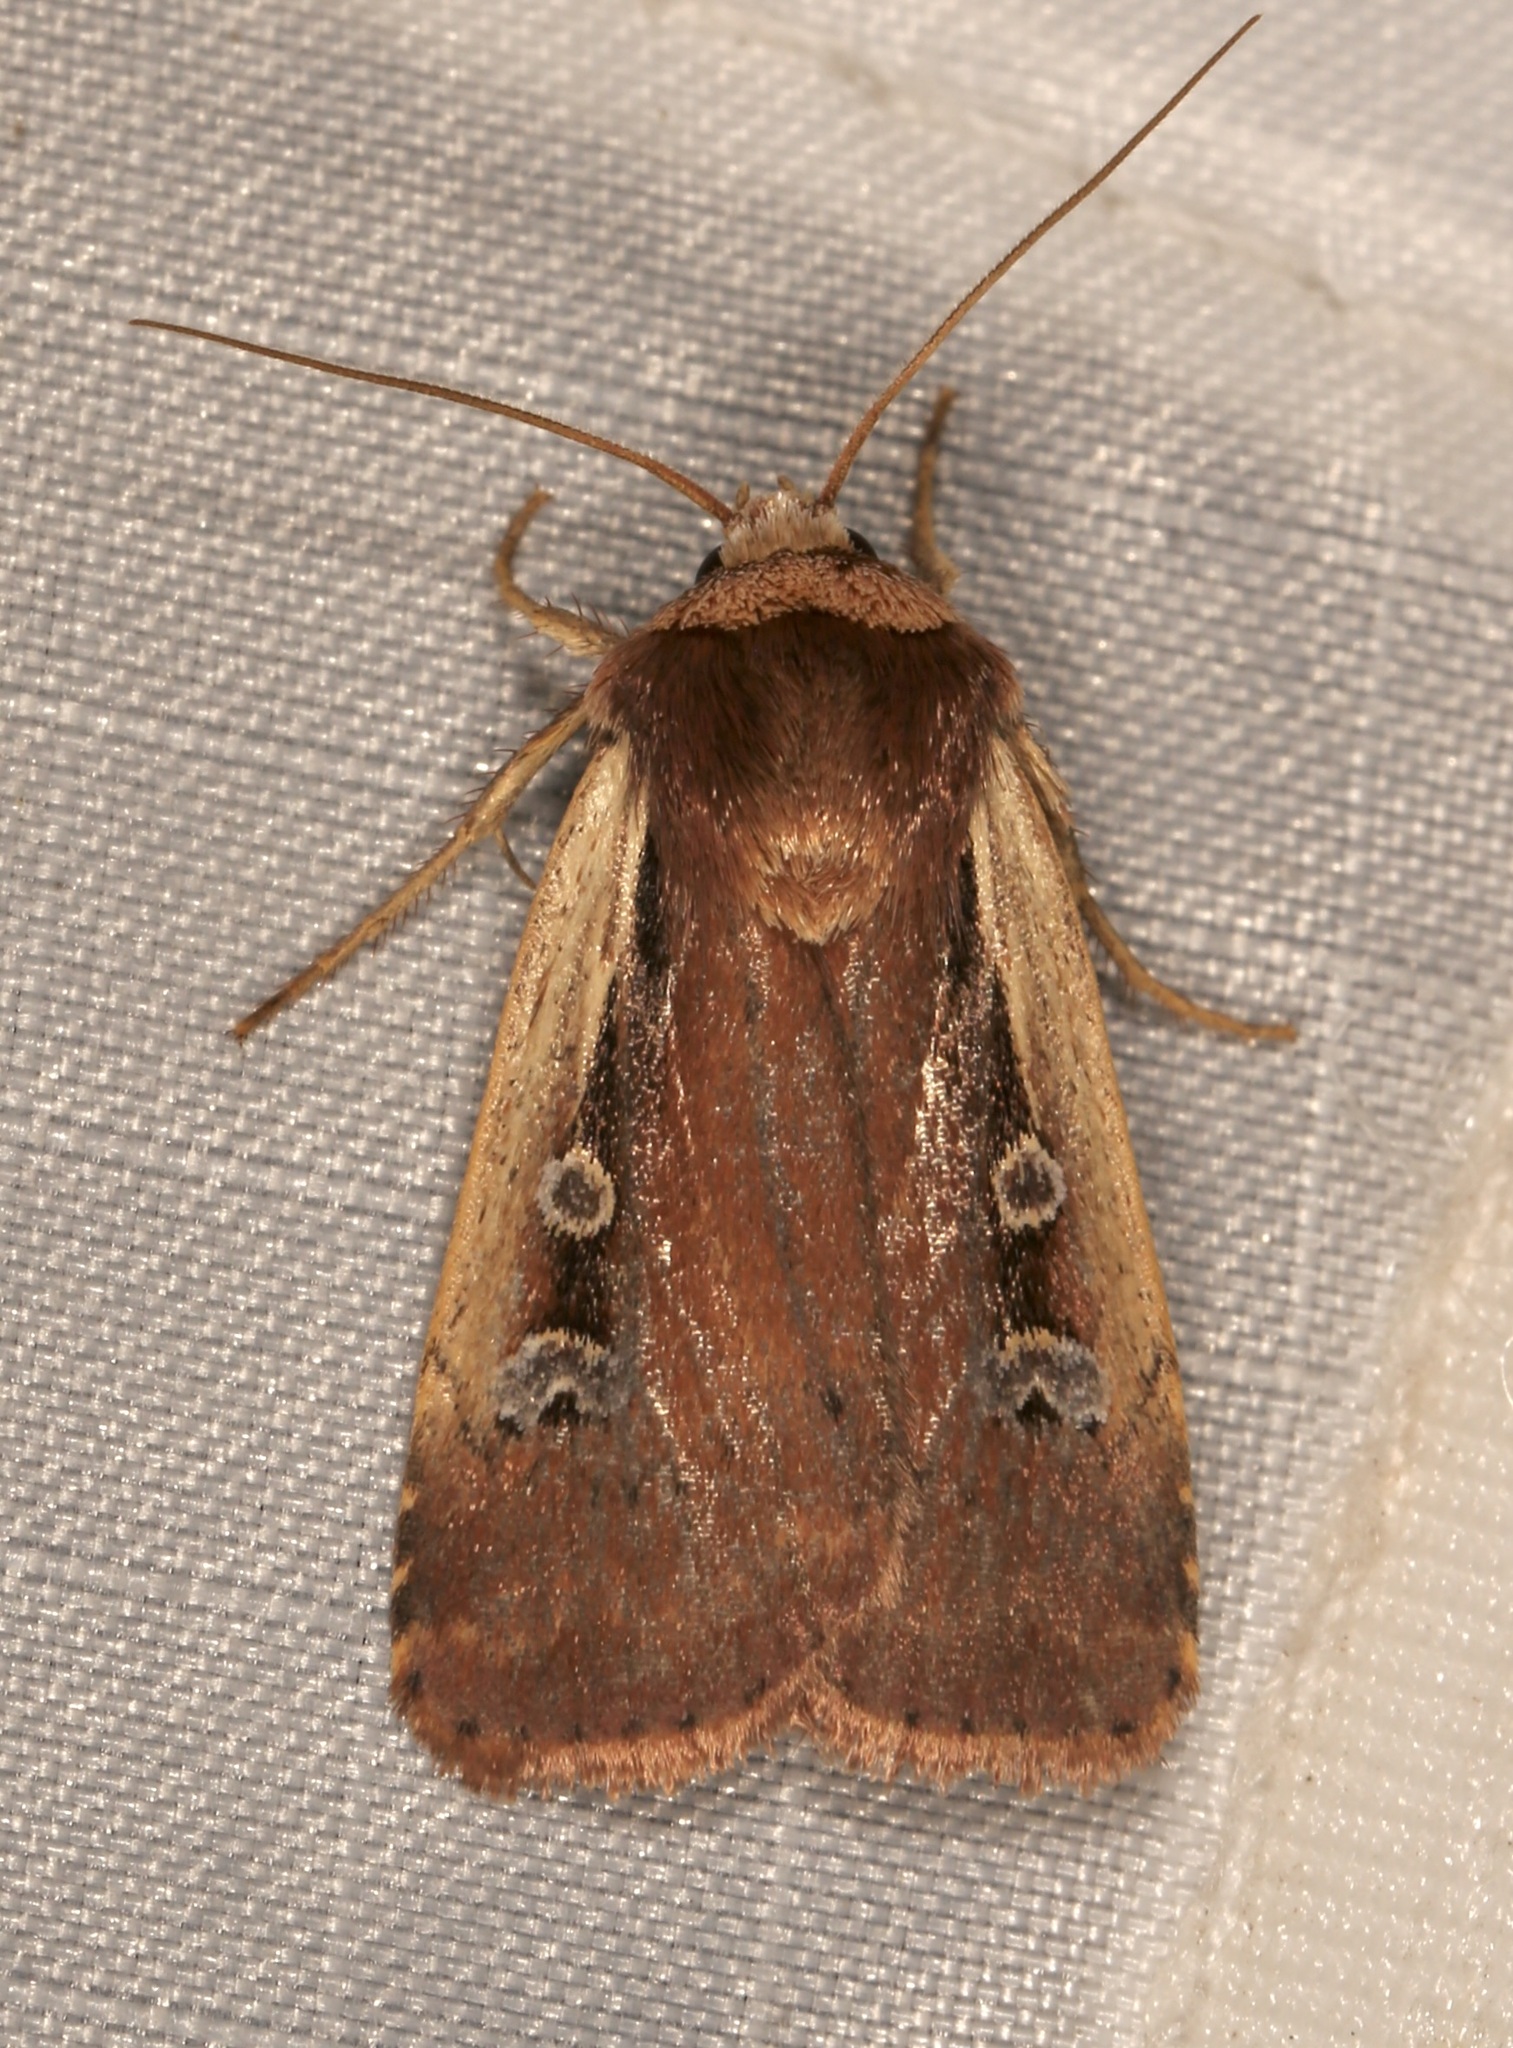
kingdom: Animalia
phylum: Arthropoda
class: Insecta
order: Lepidoptera
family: Noctuidae
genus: Ochropleura
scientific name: Ochropleura implecta
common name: Flame-shouldered dart
